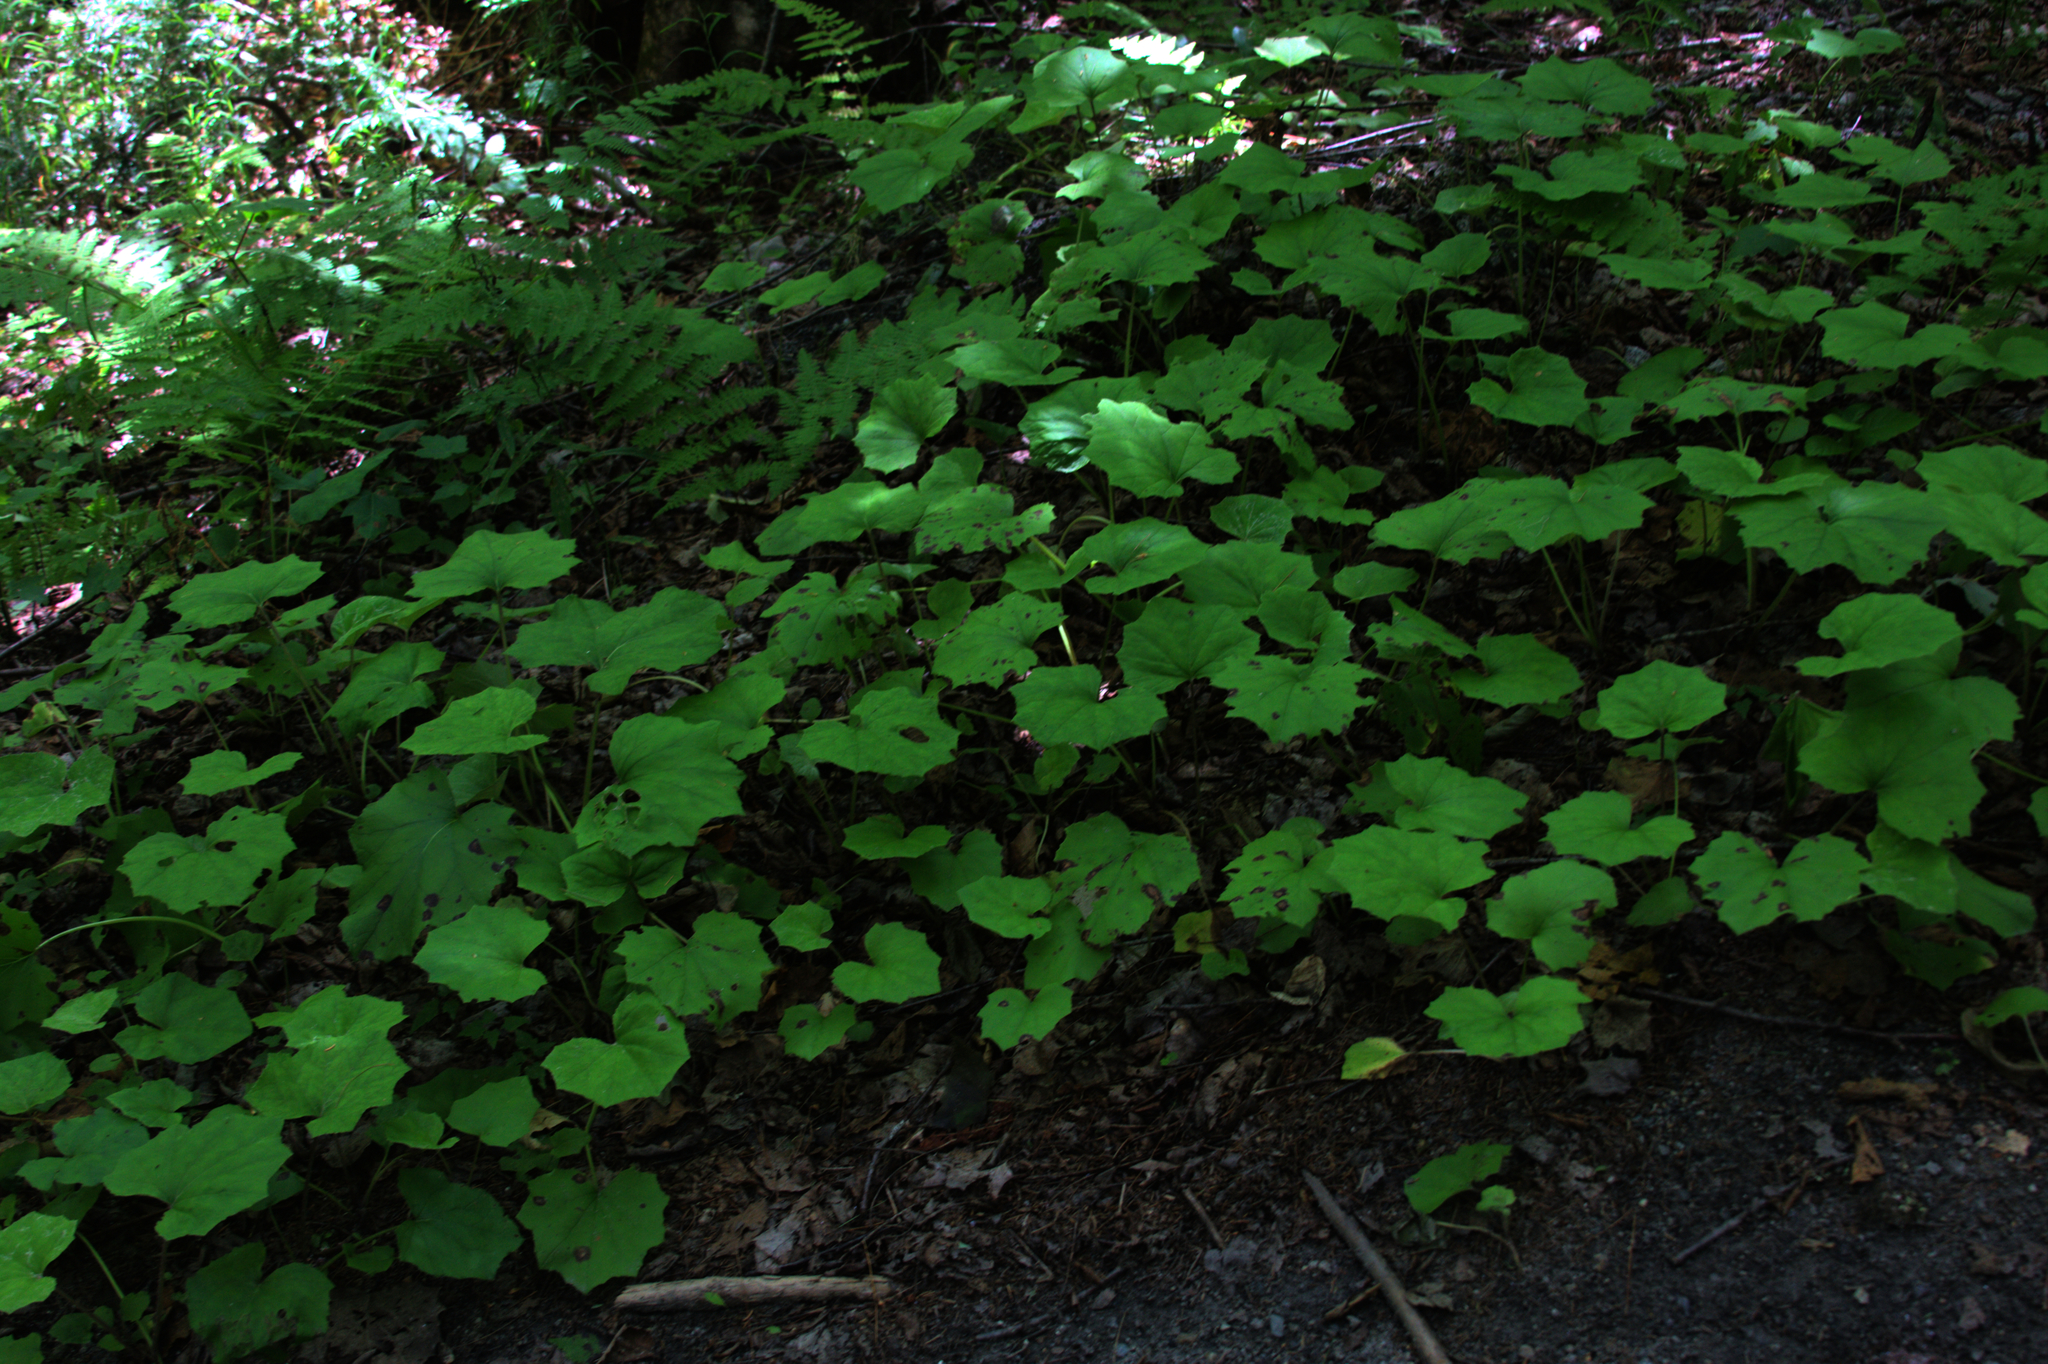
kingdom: Plantae
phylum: Tracheophyta
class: Magnoliopsida
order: Asterales
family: Asteraceae
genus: Tussilago
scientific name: Tussilago farfara
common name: Coltsfoot
